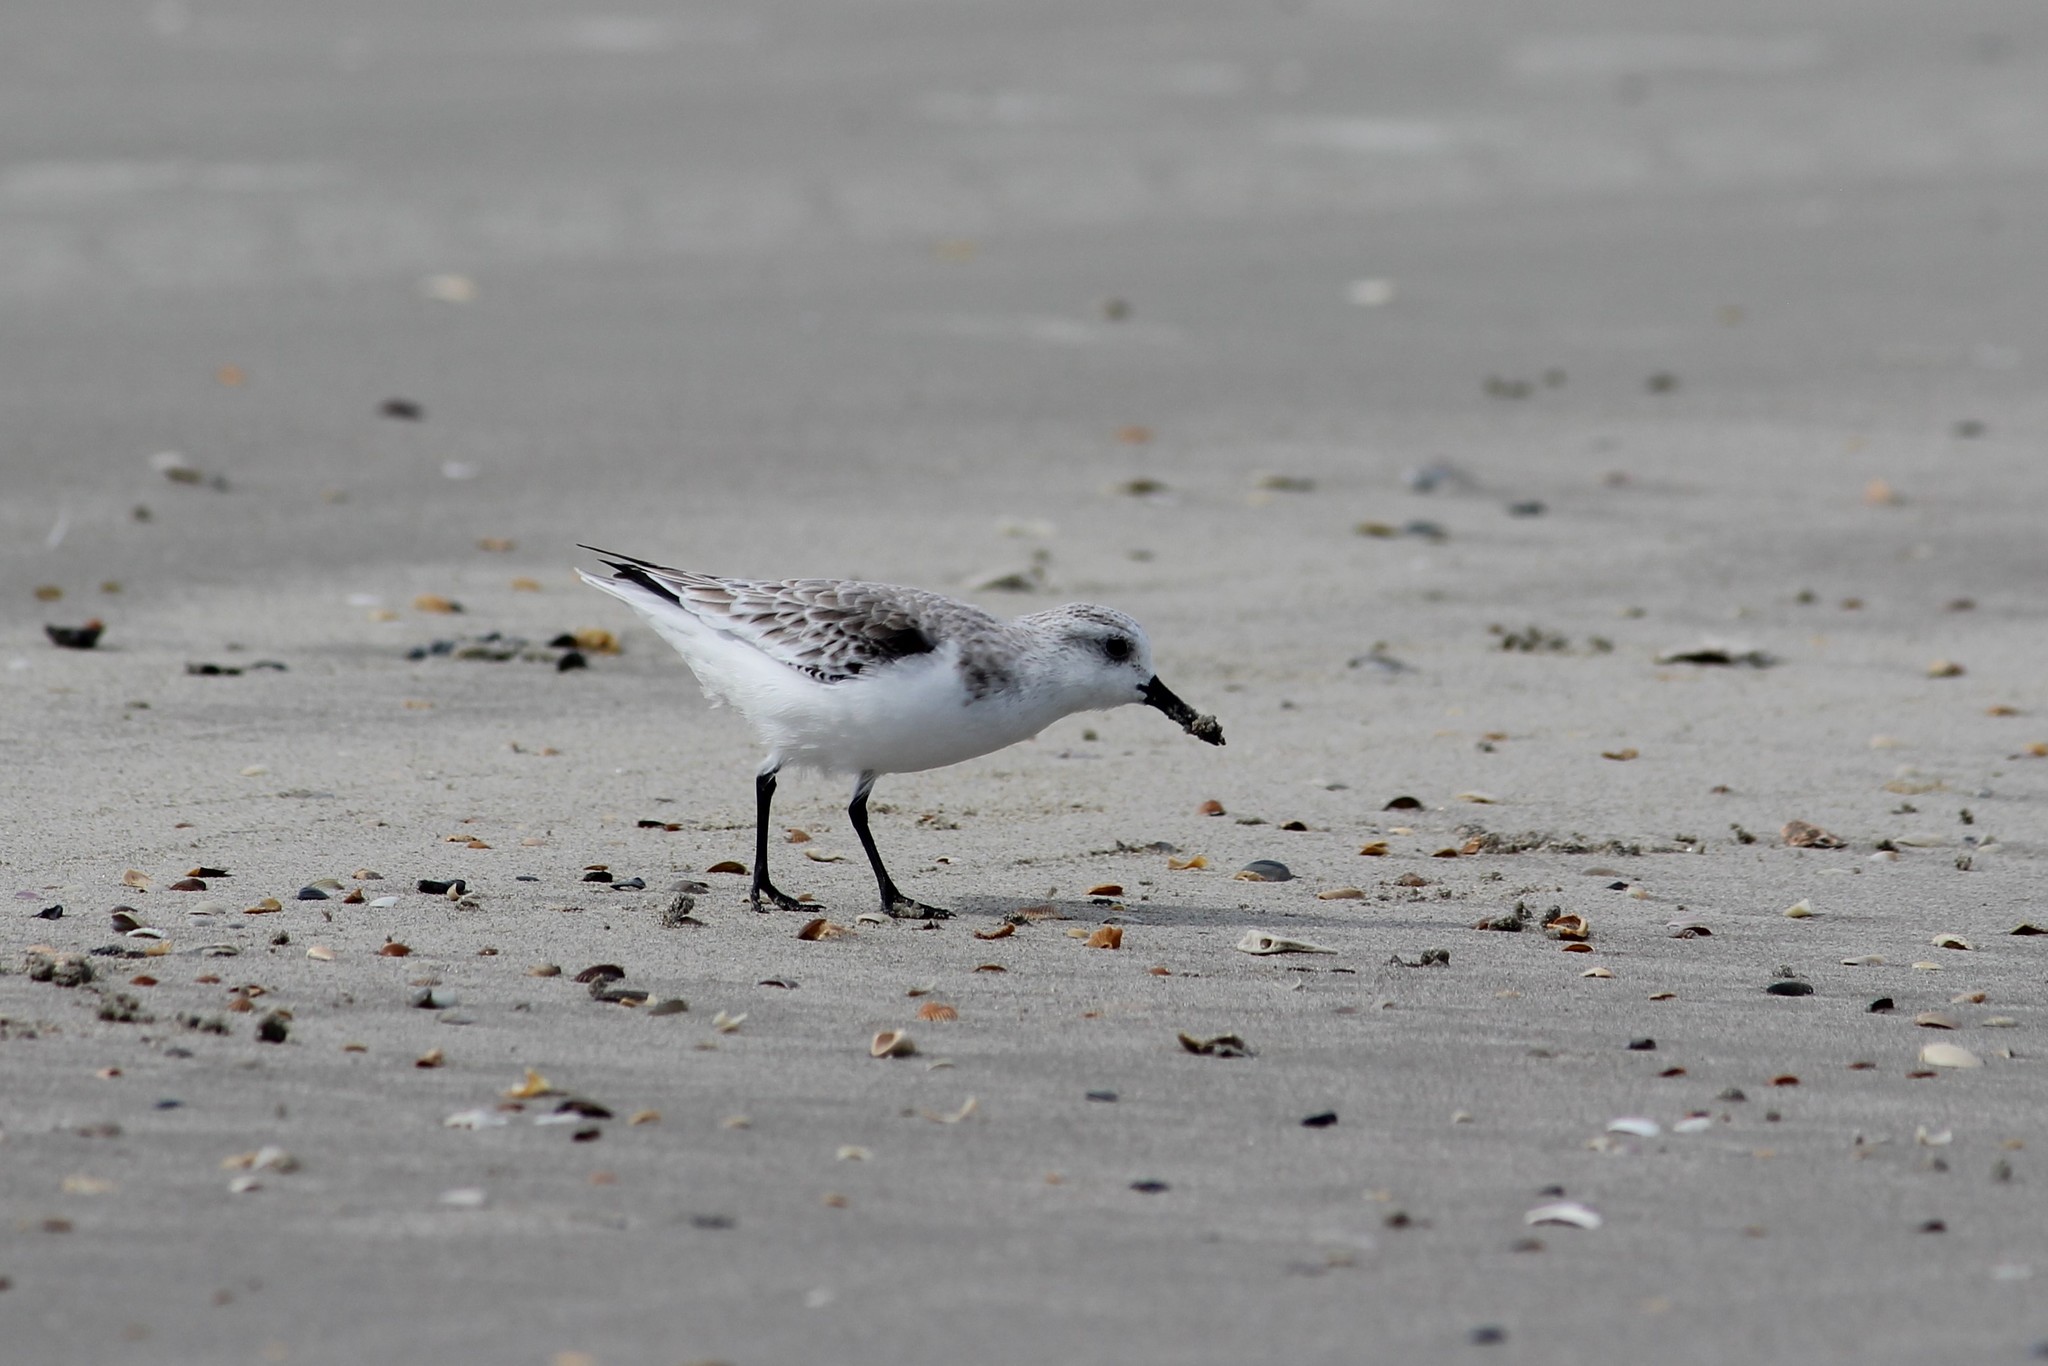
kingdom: Animalia
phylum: Chordata
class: Aves
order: Charadriiformes
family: Scolopacidae
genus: Calidris
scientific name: Calidris alba
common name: Sanderling
